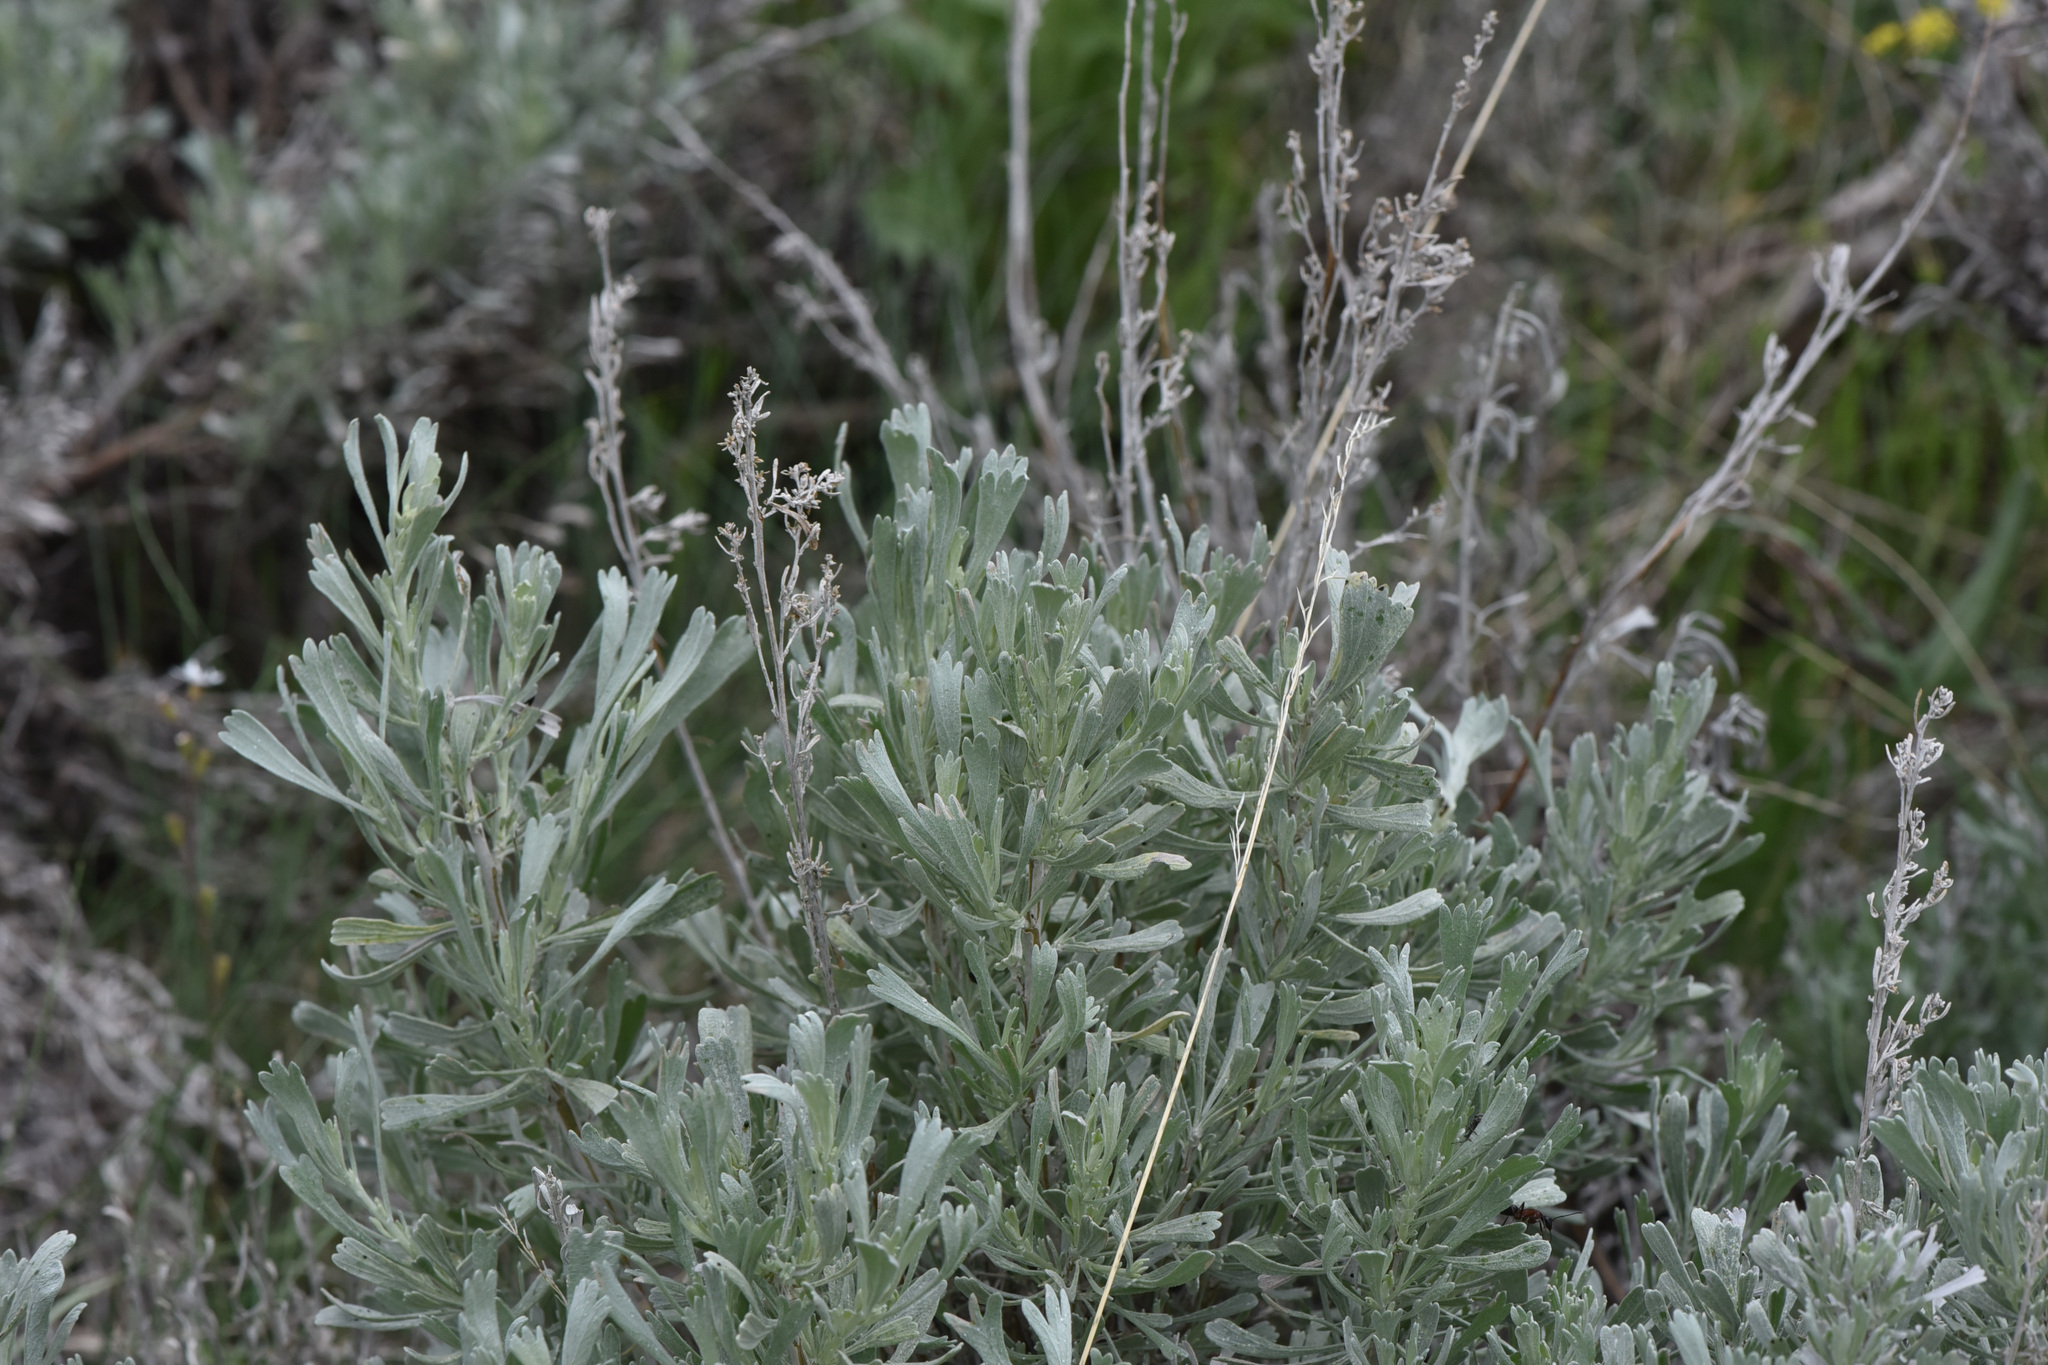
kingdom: Plantae
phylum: Tracheophyta
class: Magnoliopsida
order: Asterales
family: Asteraceae
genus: Artemisia
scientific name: Artemisia tridentata
